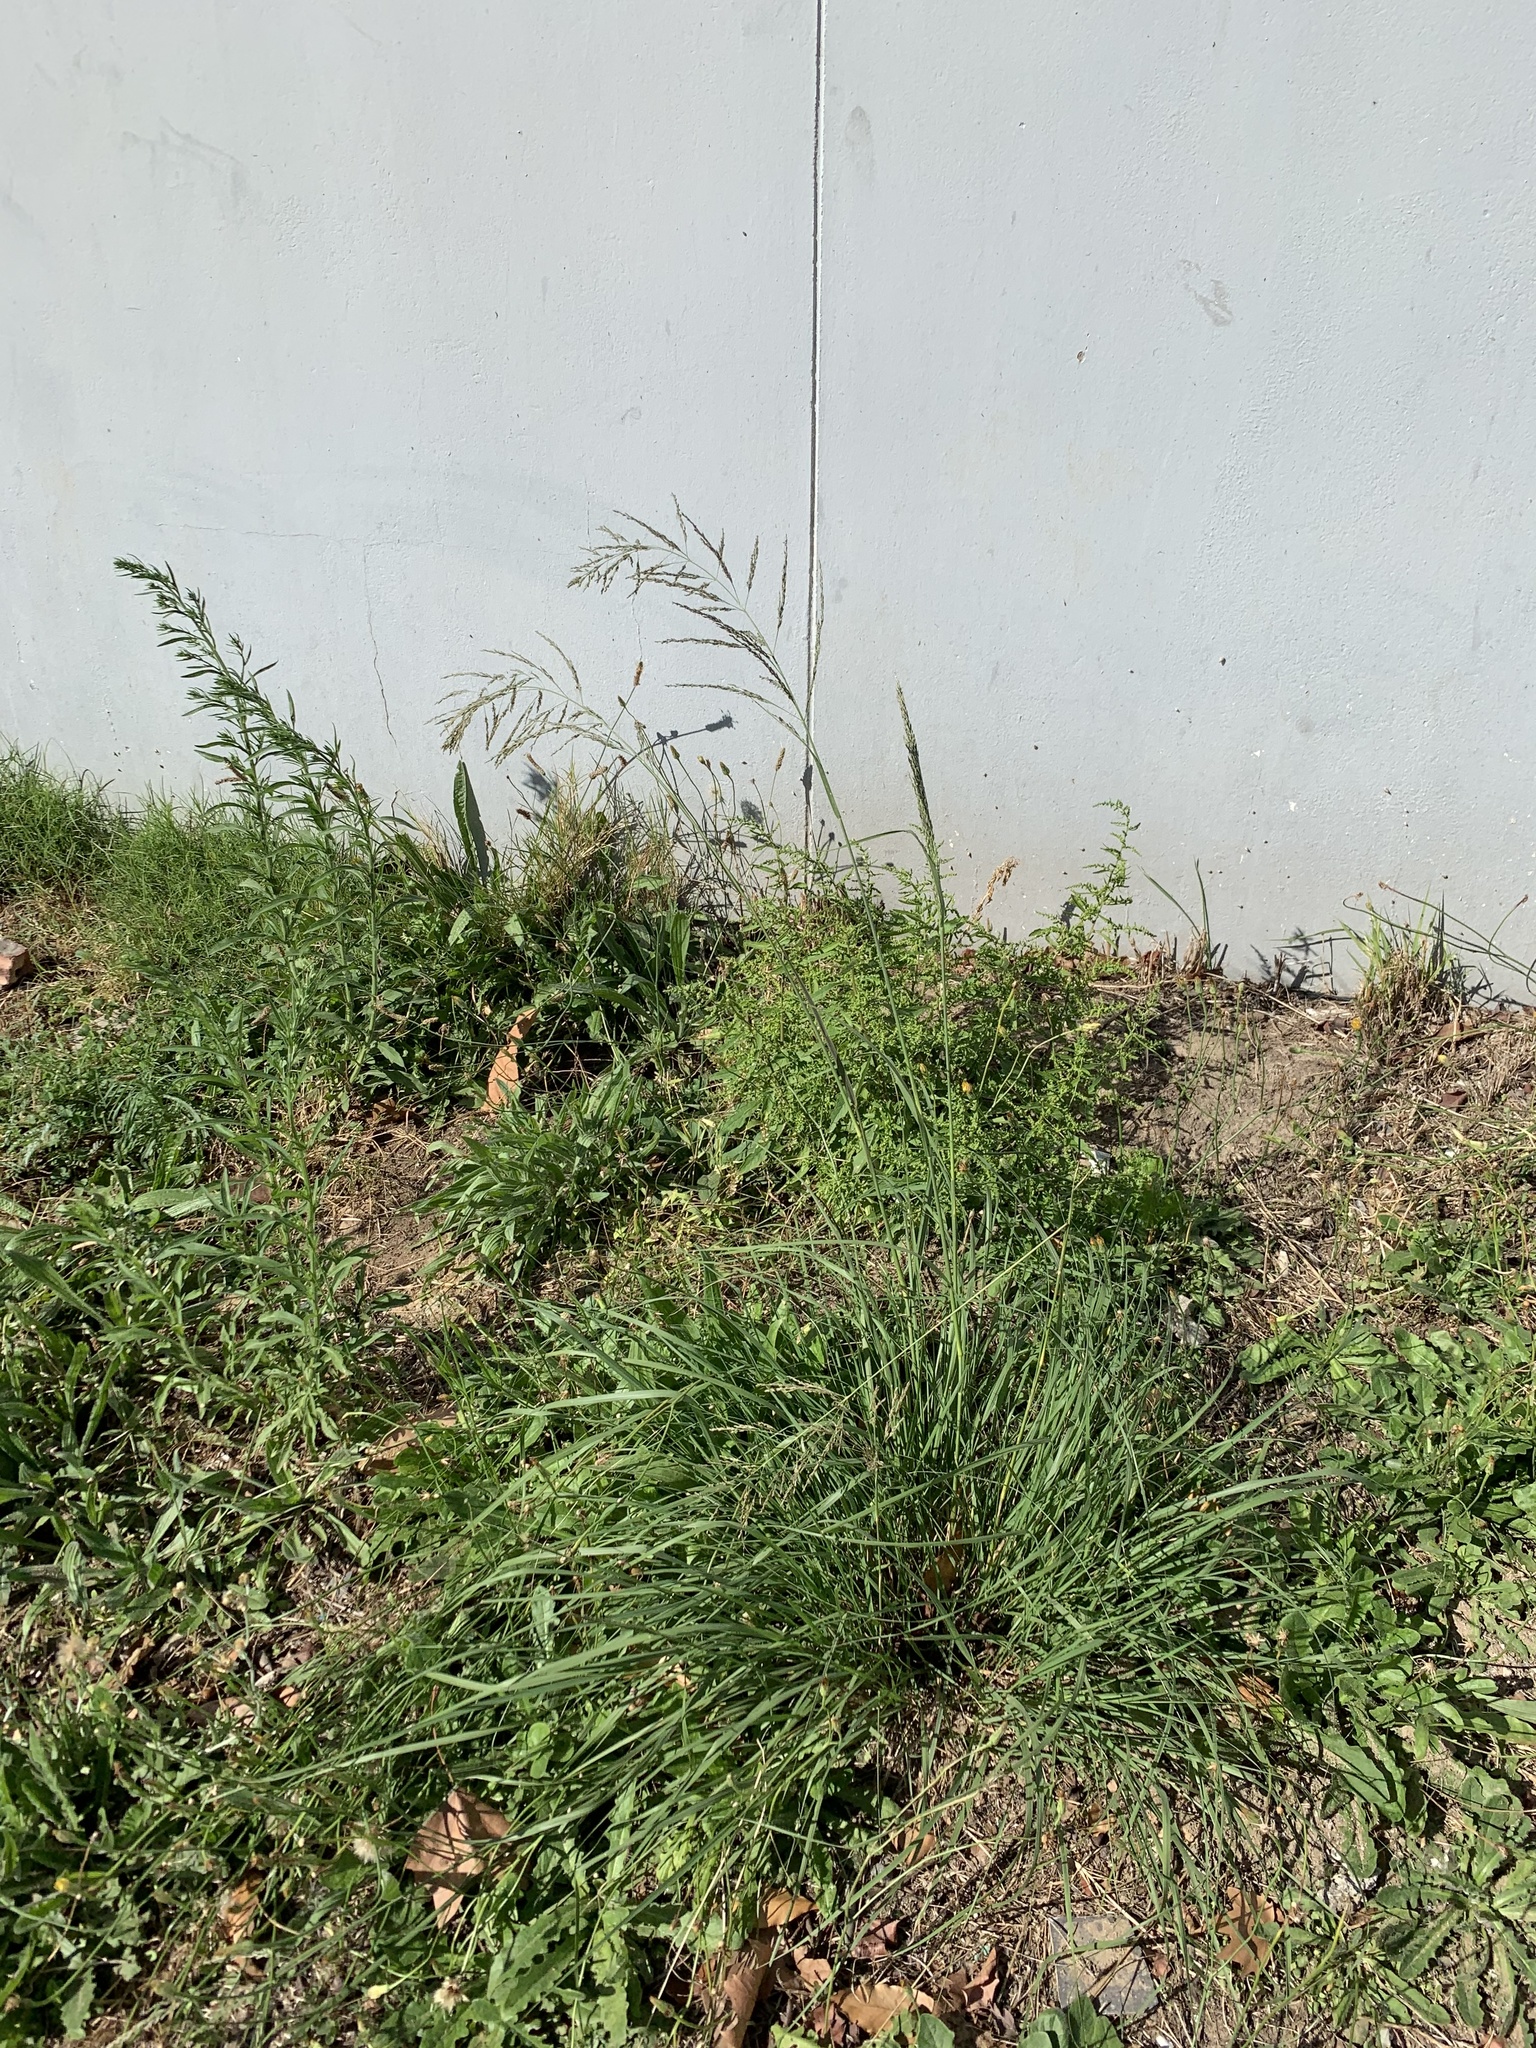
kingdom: Plantae
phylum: Tracheophyta
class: Liliopsida
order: Poales
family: Poaceae
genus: Eragrostis
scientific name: Eragrostis curvula
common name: African love-grass
